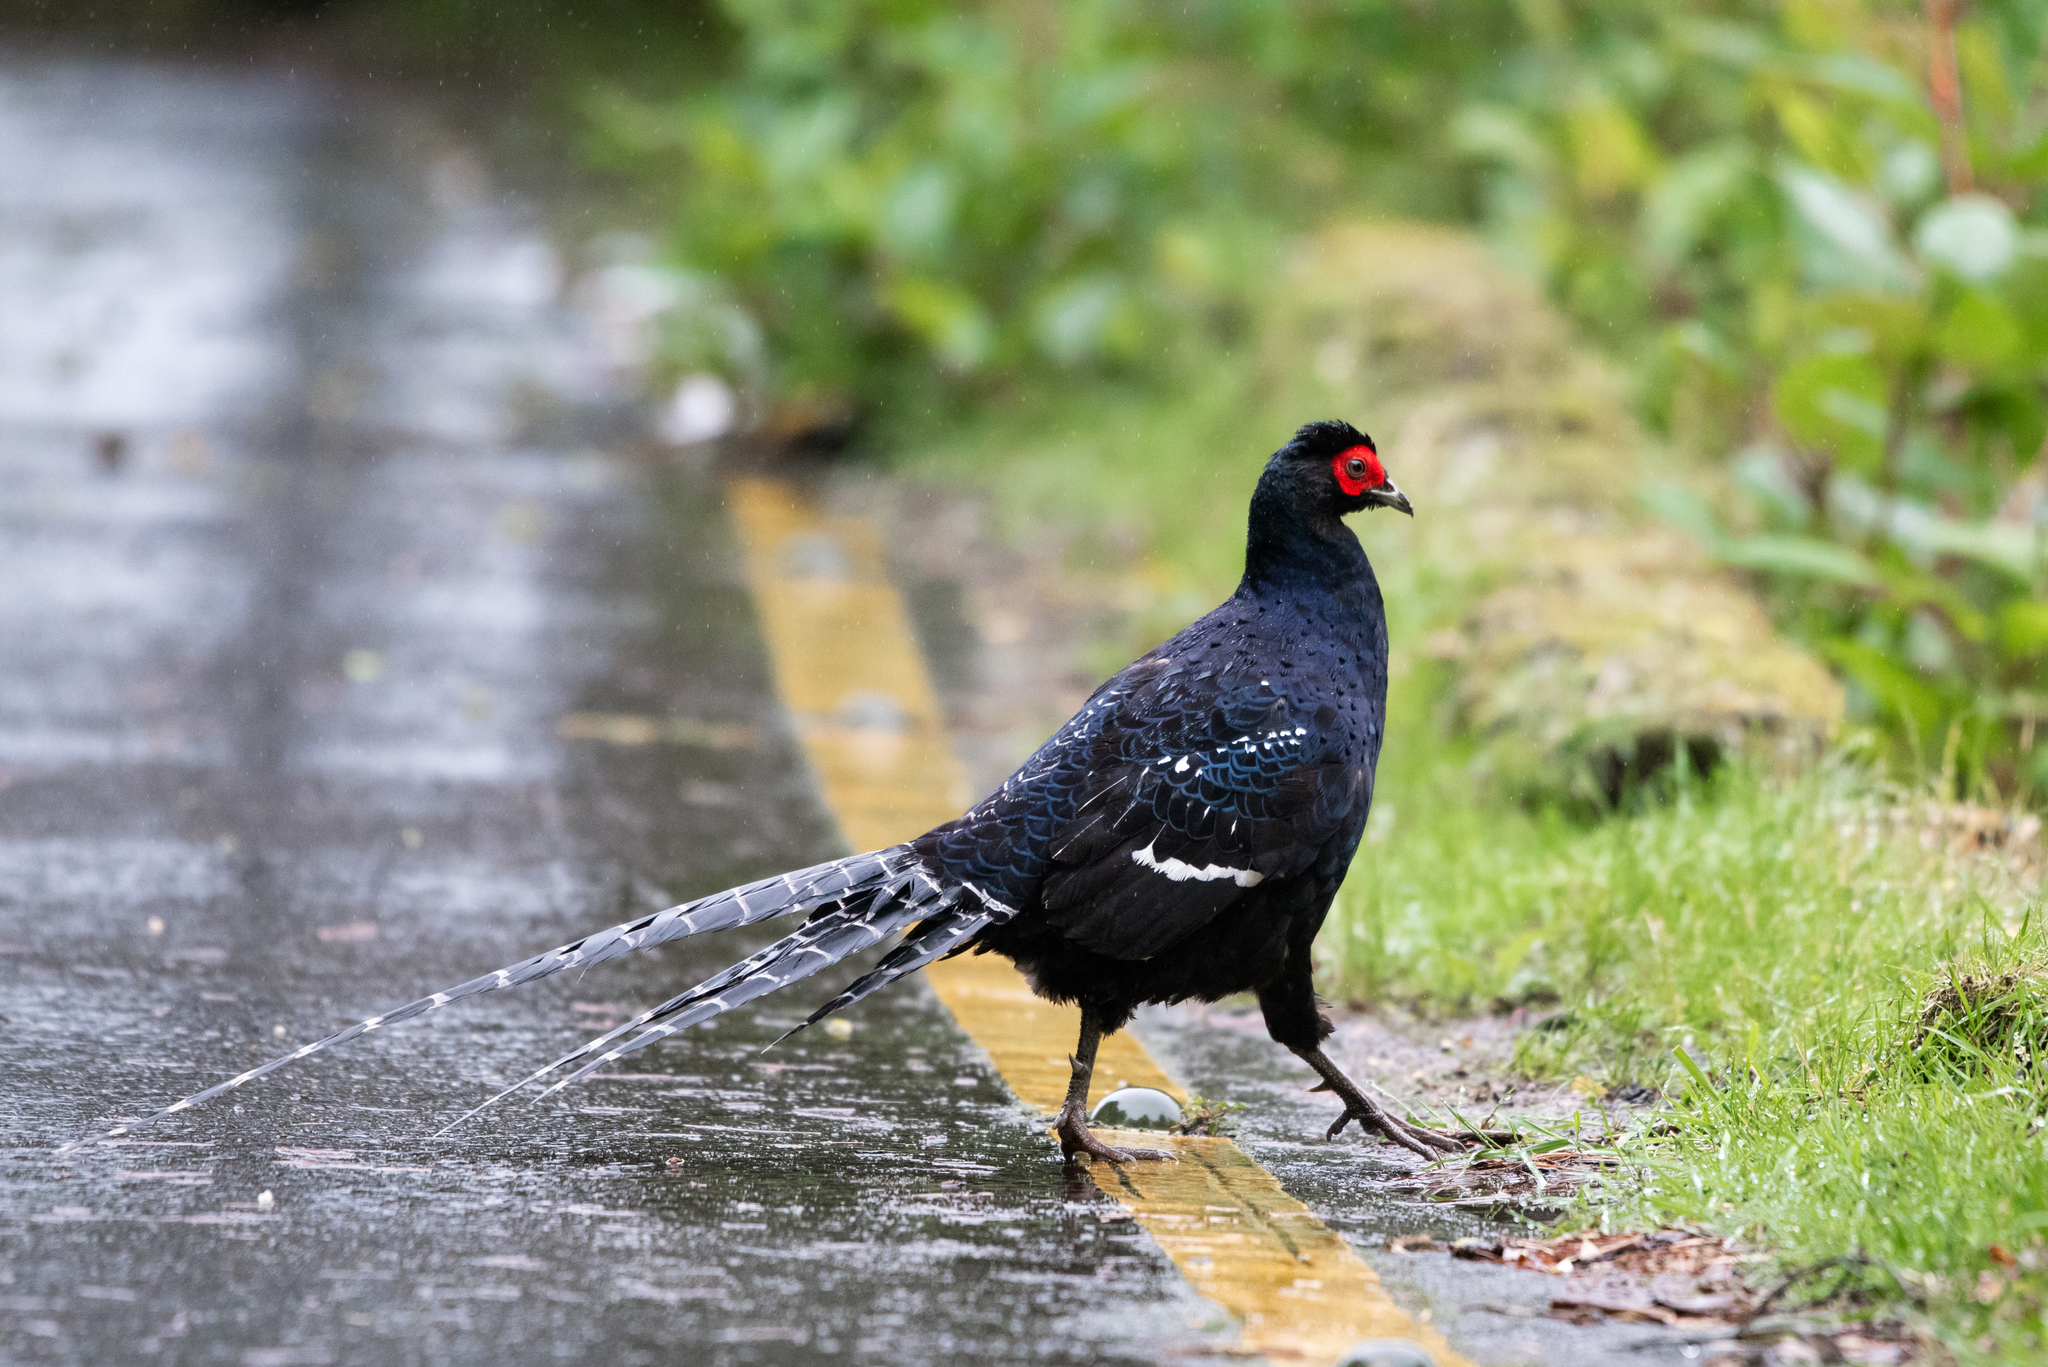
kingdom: Animalia
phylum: Chordata
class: Aves
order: Galliformes
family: Phasianidae
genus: Syrmaticus
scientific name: Syrmaticus mikado
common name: Mikado pheasant
